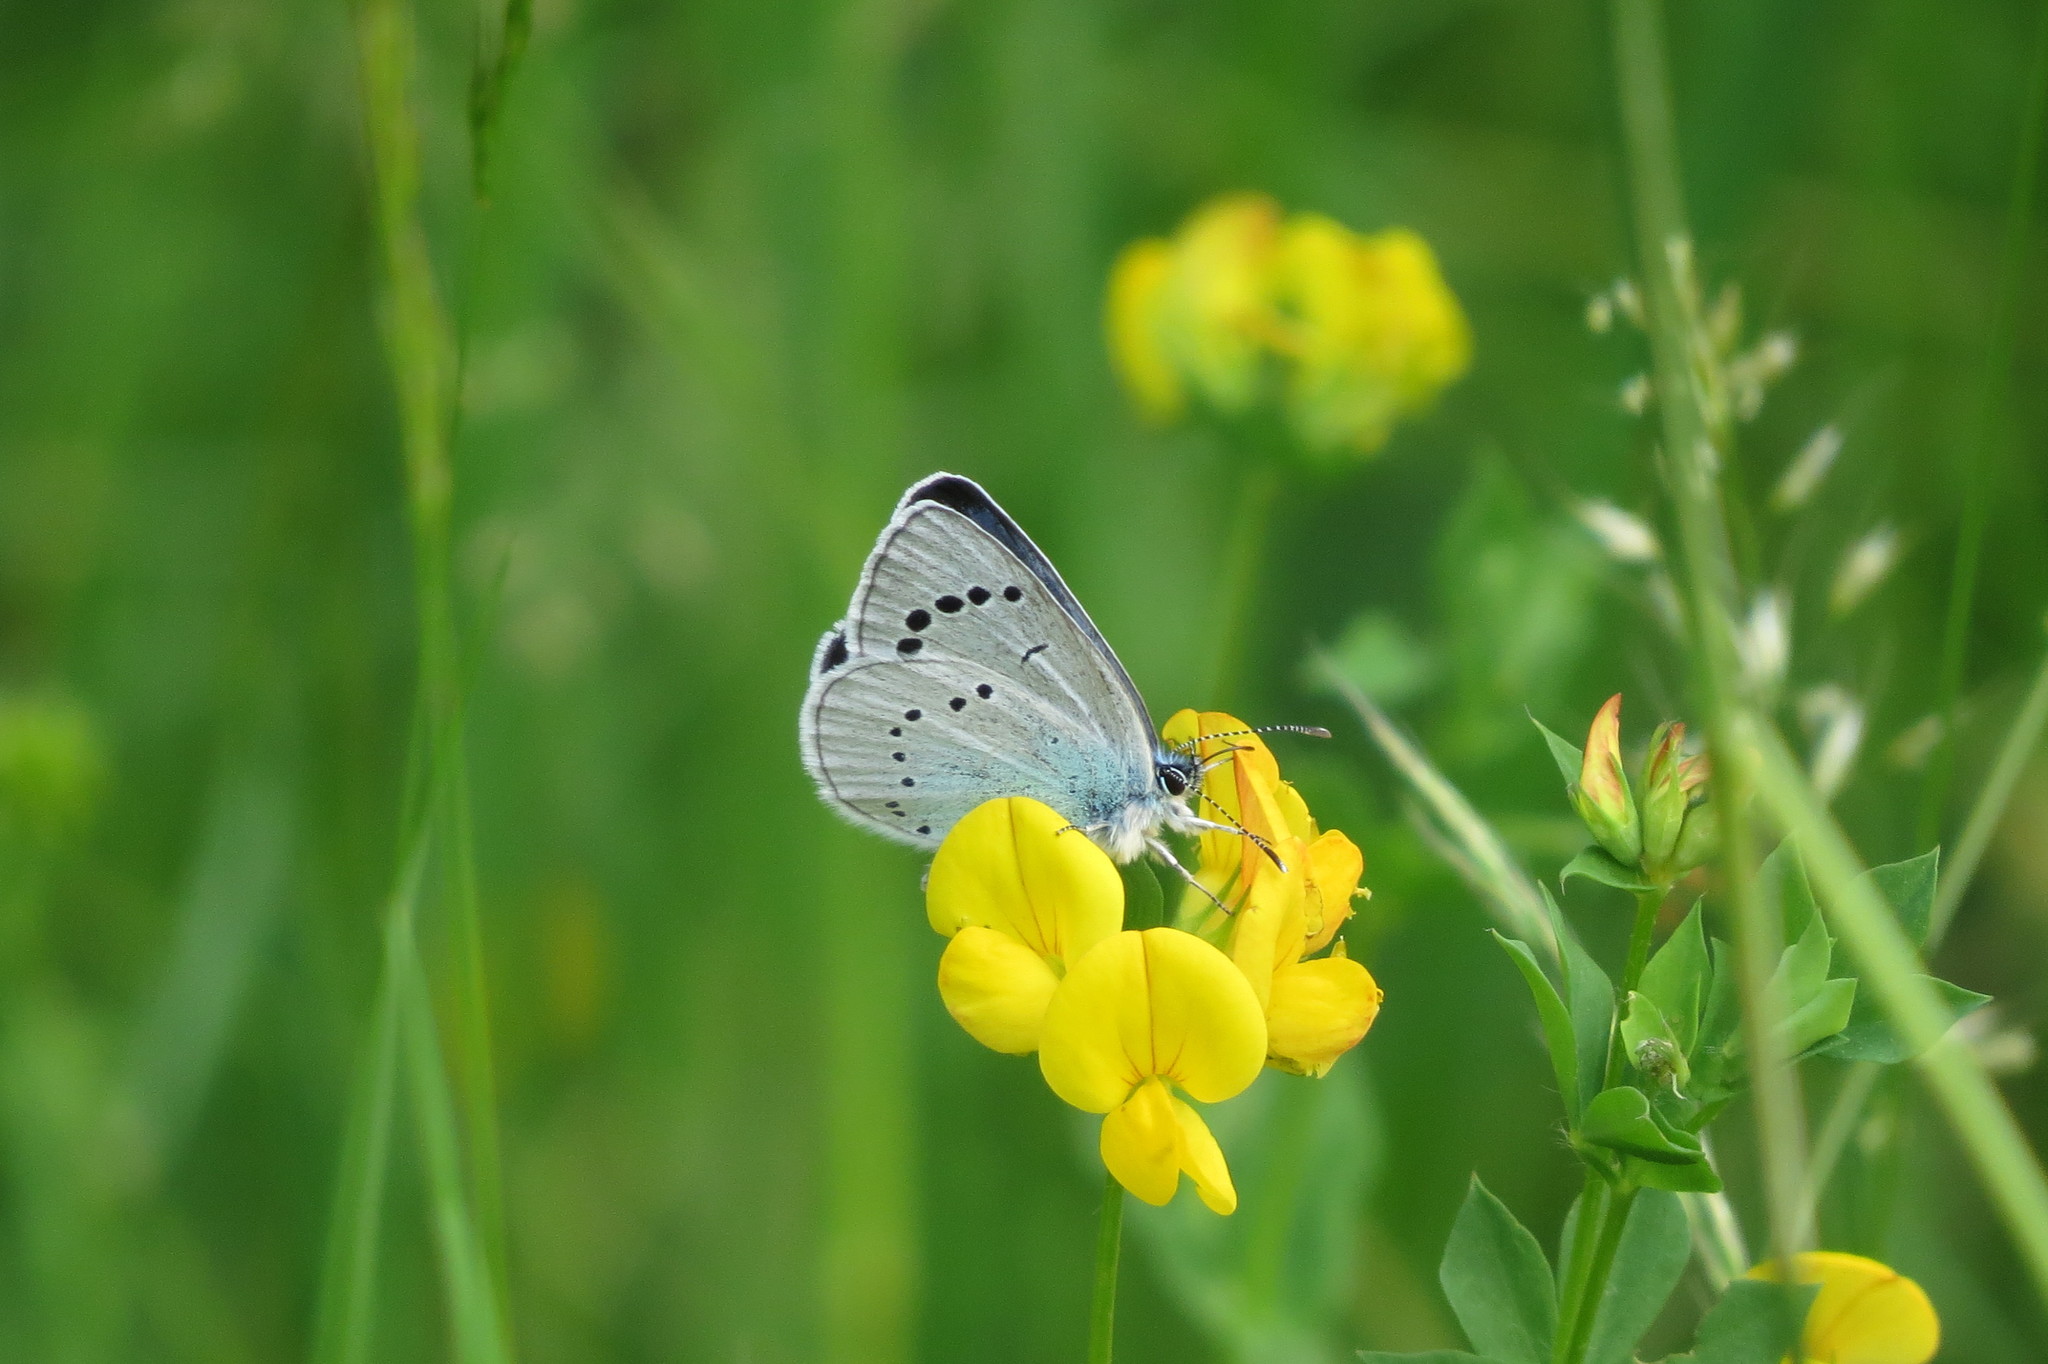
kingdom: Animalia
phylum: Arthropoda
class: Insecta
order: Lepidoptera
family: Lycaenidae
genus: Glaucopsyche
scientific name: Glaucopsyche alexis
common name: Green-underside blue
